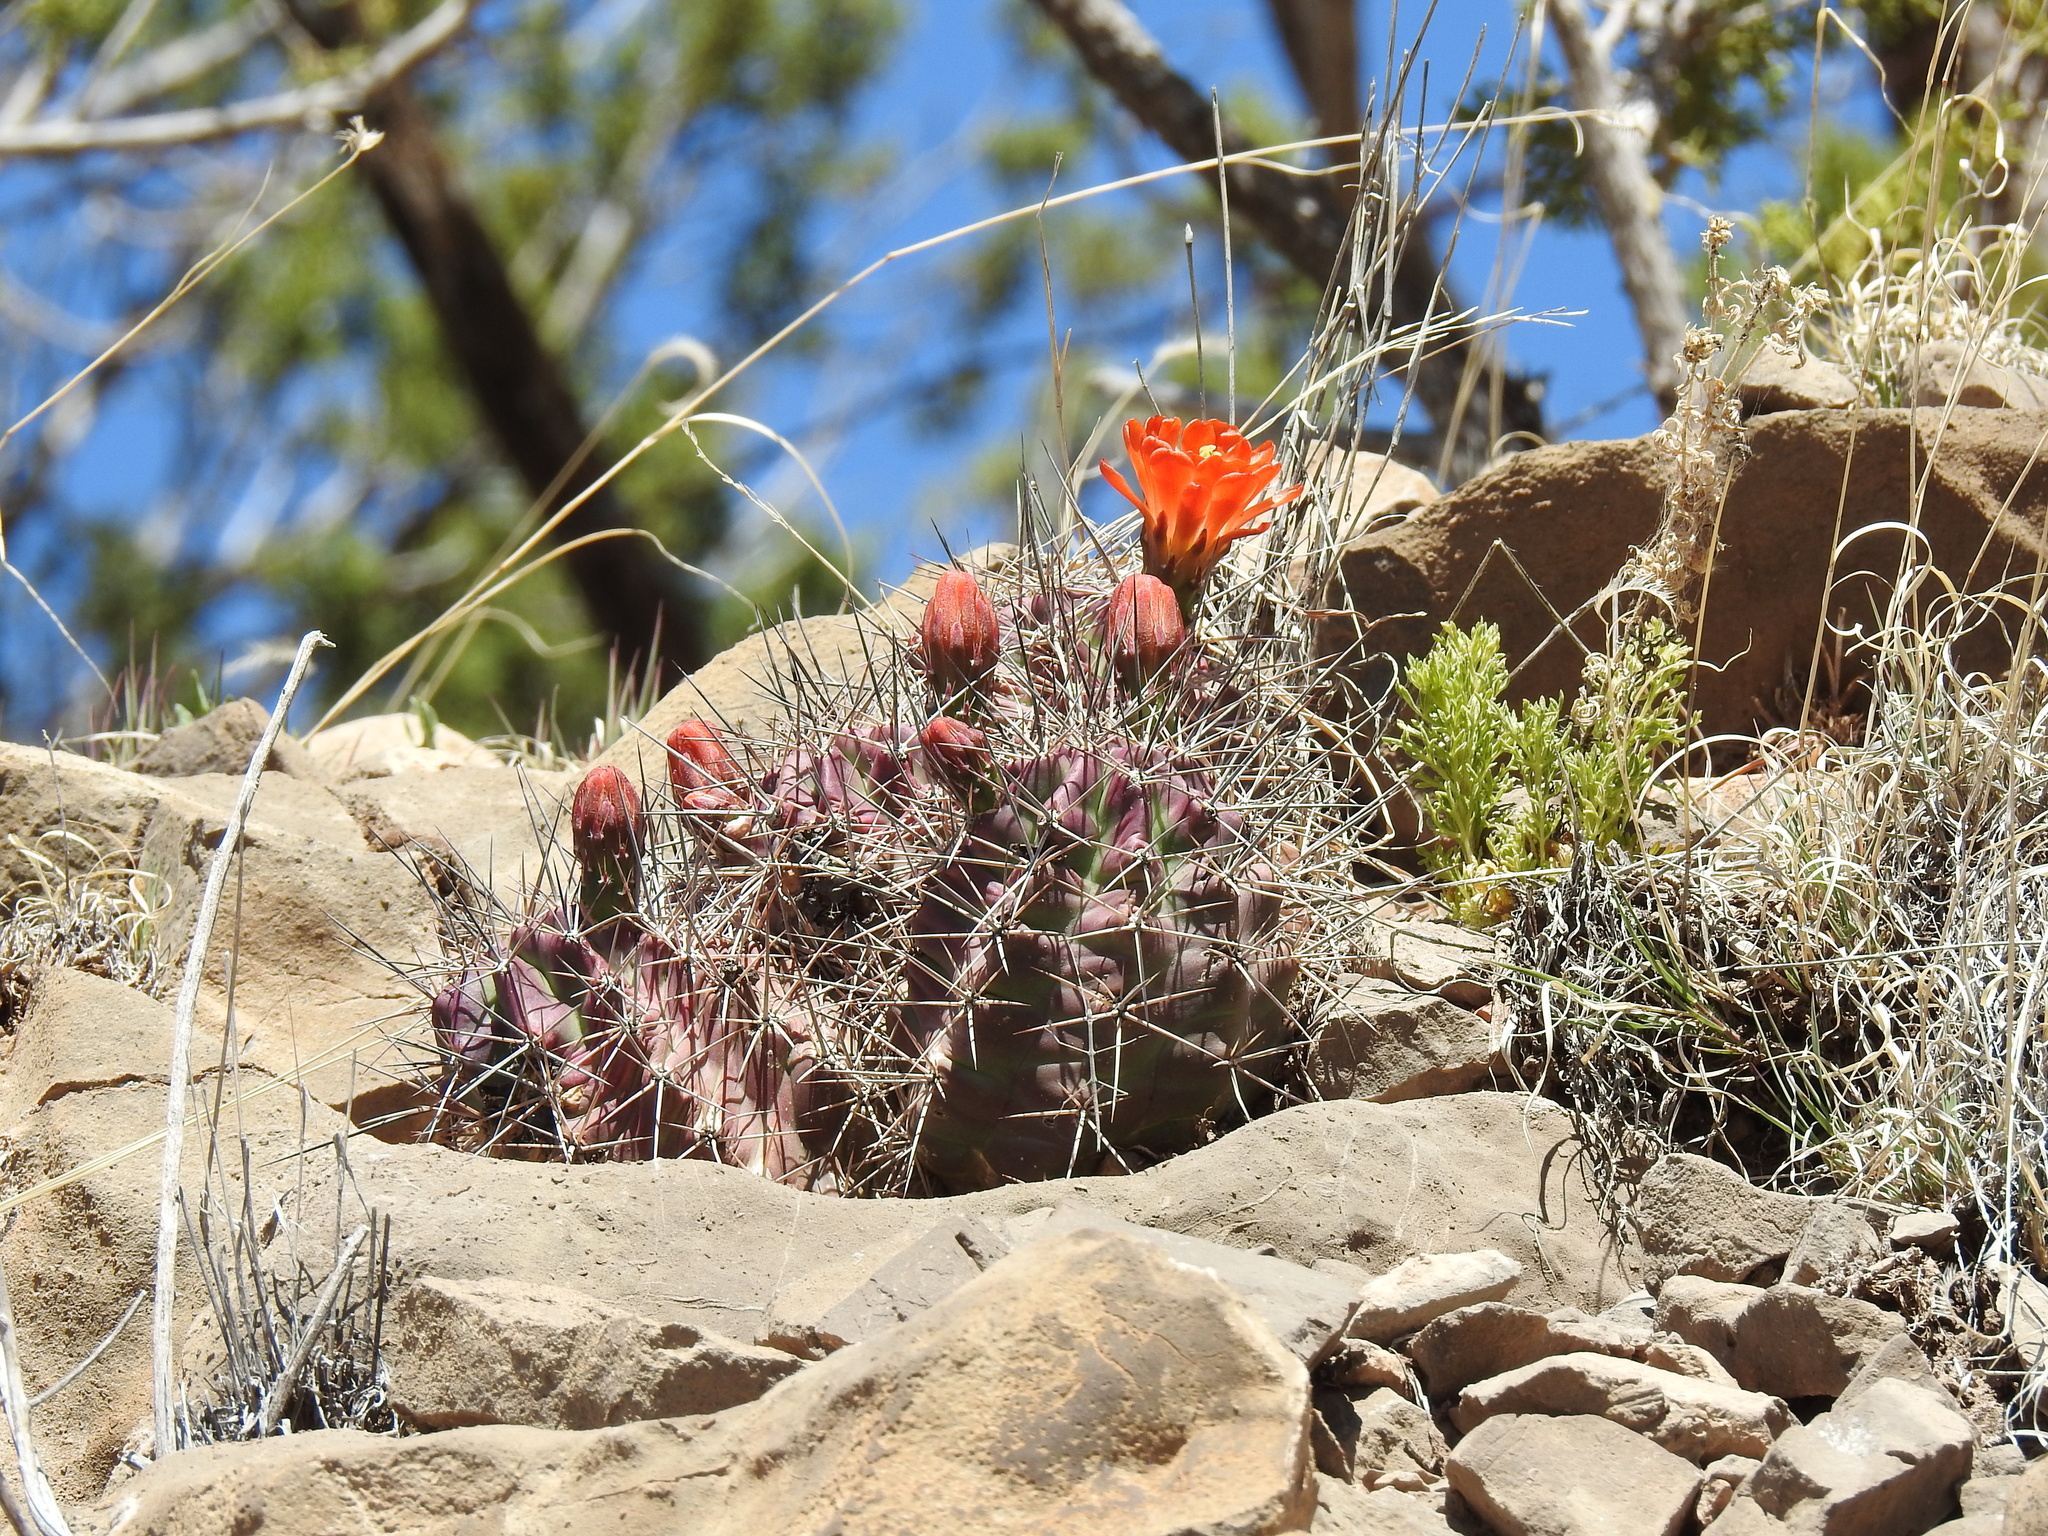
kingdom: Plantae
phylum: Tracheophyta
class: Magnoliopsida
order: Caryophyllales
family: Cactaceae
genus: Echinocereus
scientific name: Echinocereus coccineus
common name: Scarlet hedgehog cactus
